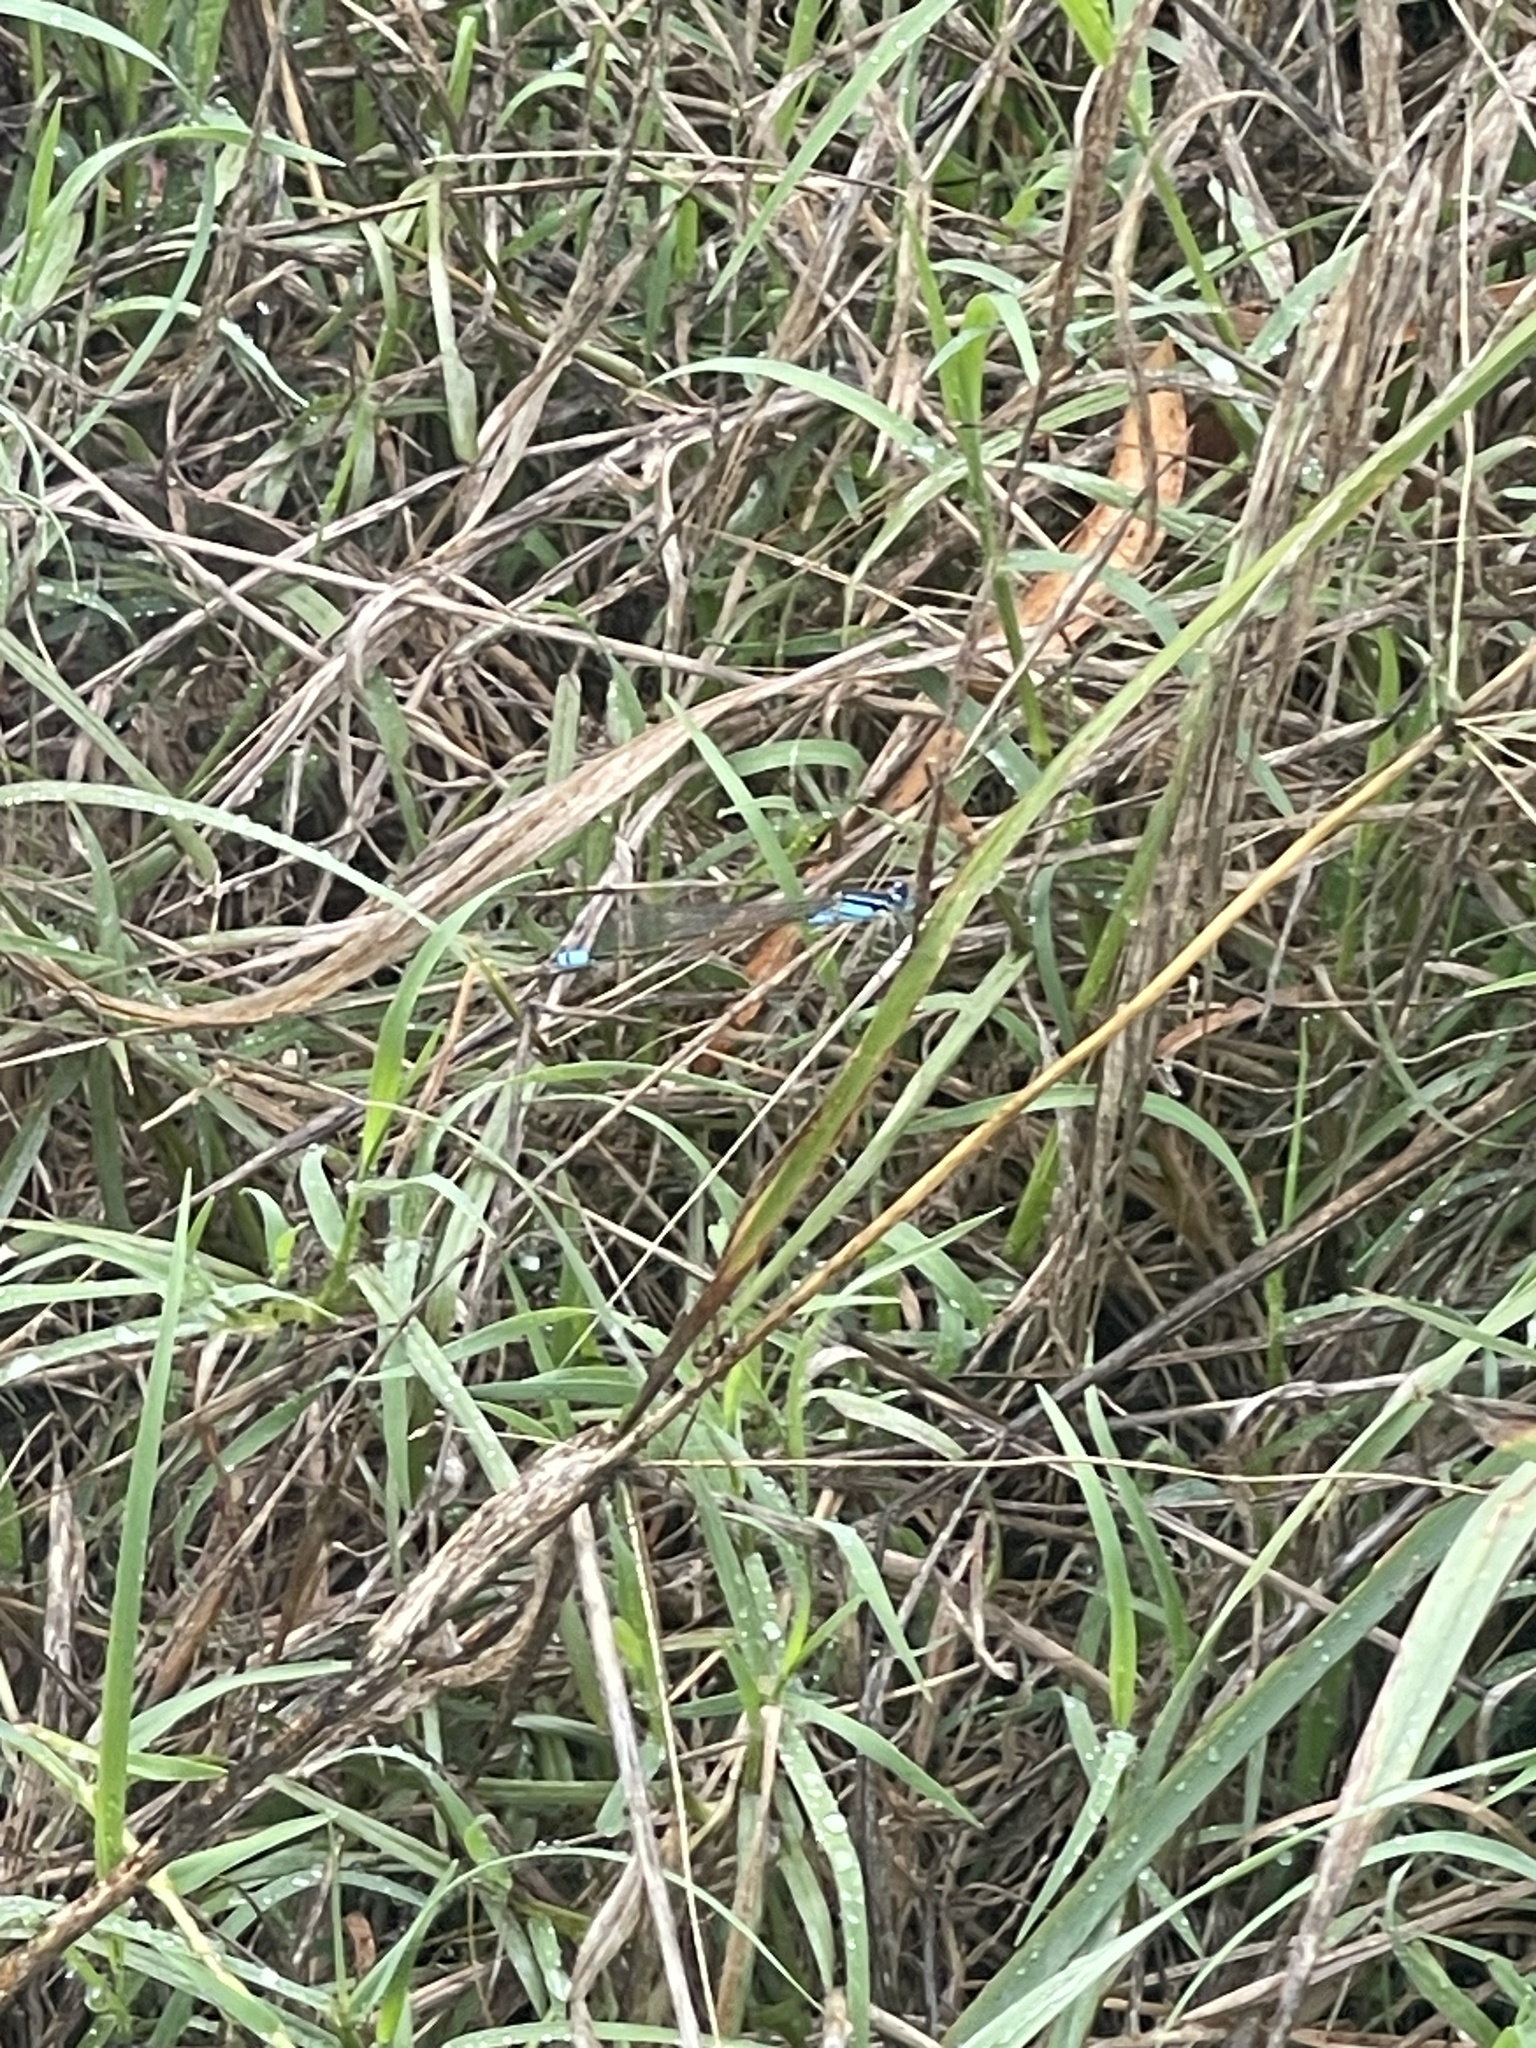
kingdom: Animalia
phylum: Arthropoda
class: Insecta
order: Odonata
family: Coenagrionidae
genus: Ischnura
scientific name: Ischnura heterosticta
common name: Common bluetail
